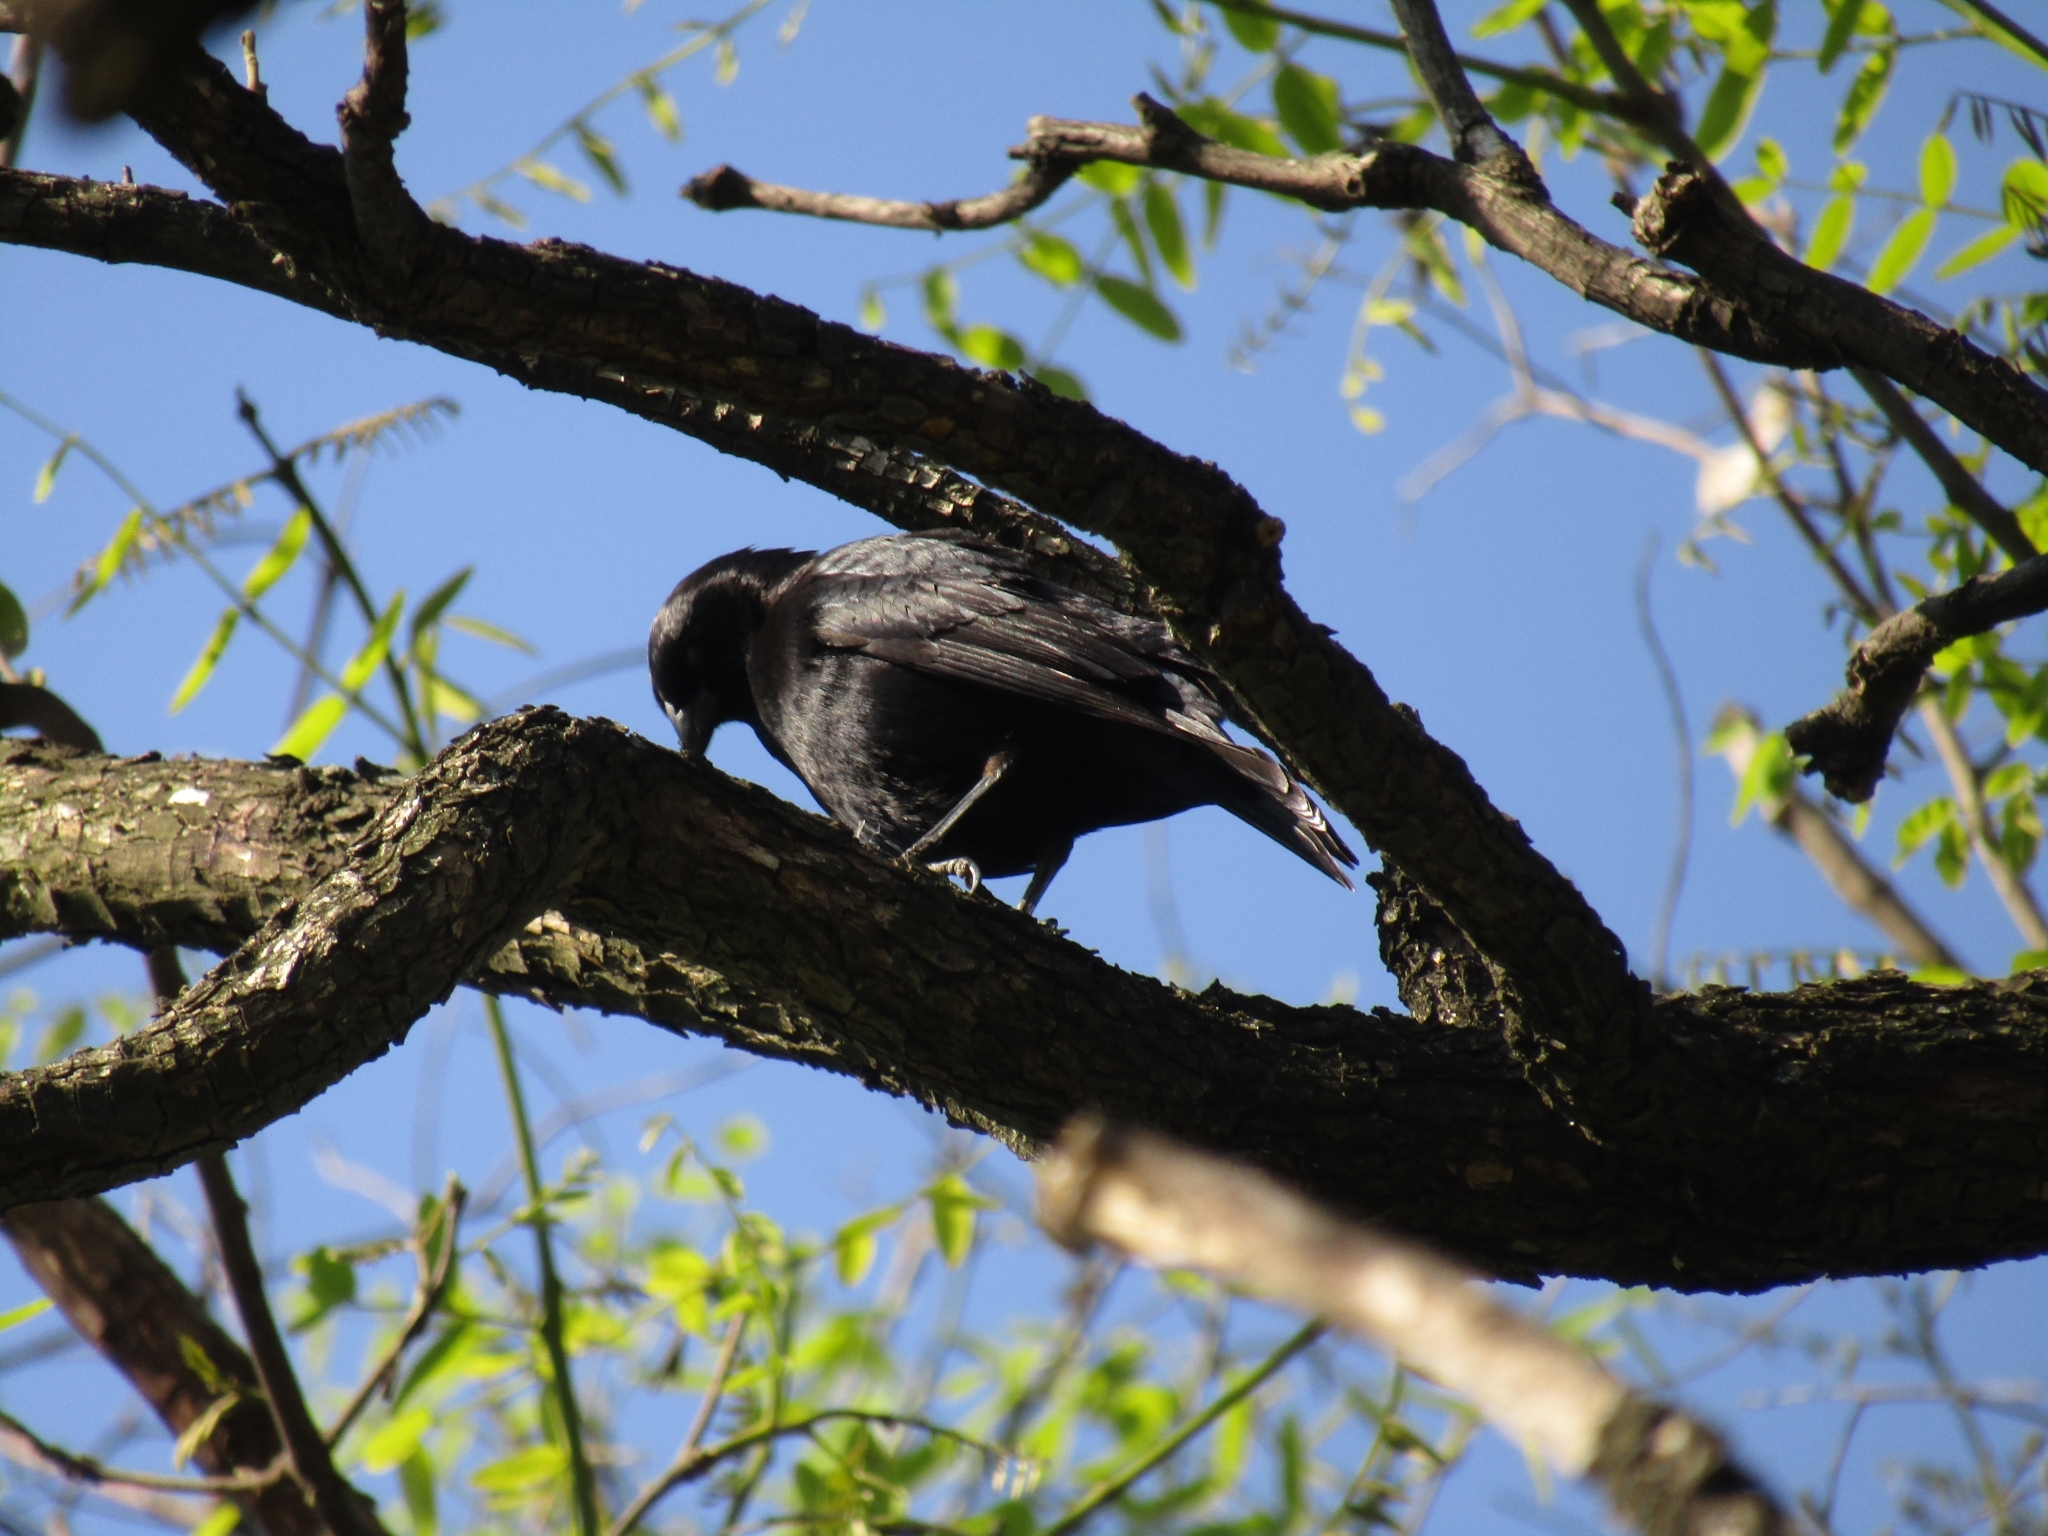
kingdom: Animalia
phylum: Chordata
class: Aves
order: Passeriformes
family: Icteridae
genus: Molothrus
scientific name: Molothrus rufoaxillaris
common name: Screaming cowbird
